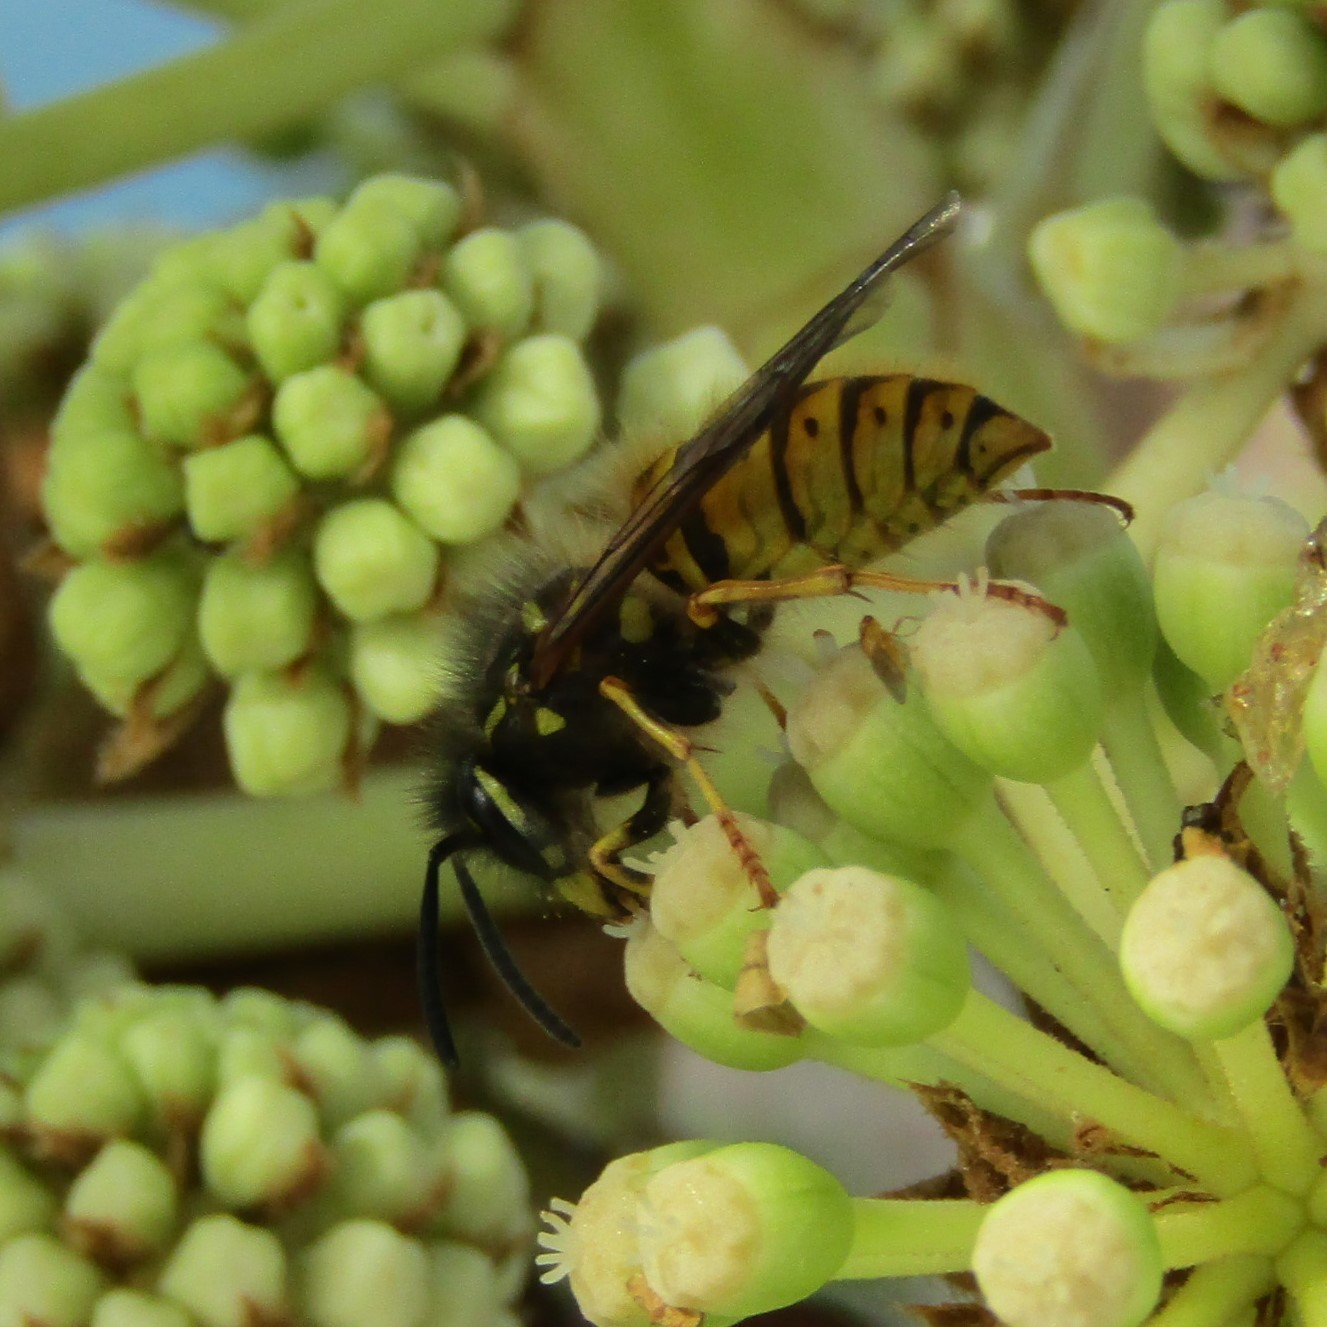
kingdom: Animalia
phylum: Arthropoda
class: Insecta
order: Hymenoptera
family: Vespidae
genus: Vespula
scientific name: Vespula vulgaris
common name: Common wasp
